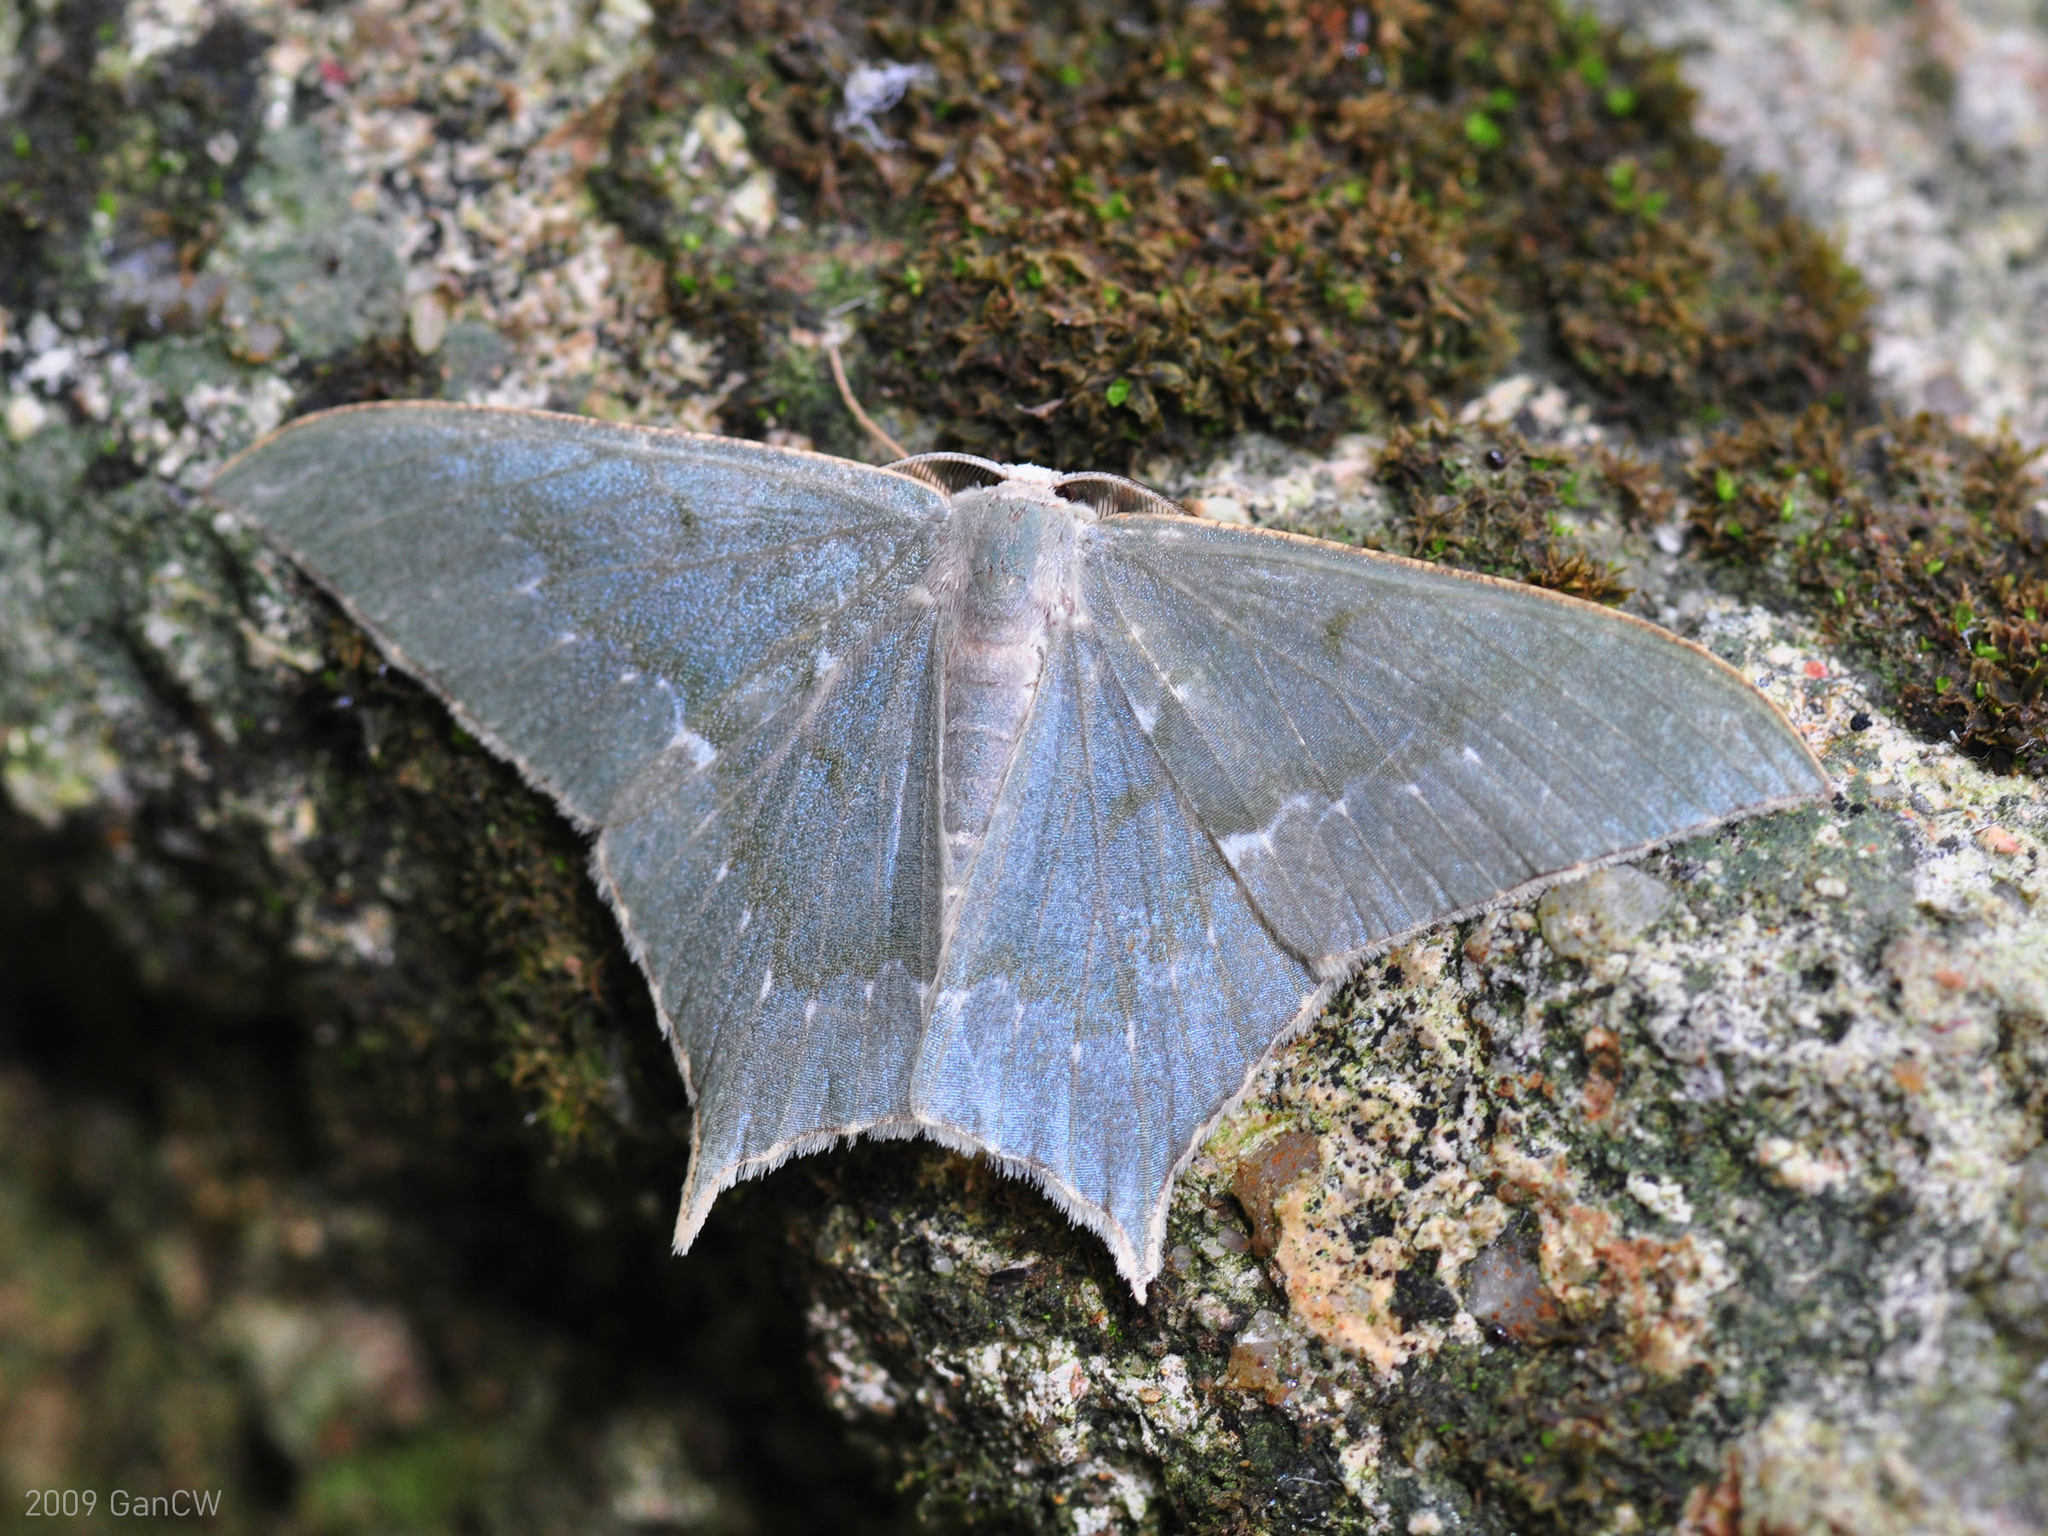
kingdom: Animalia
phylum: Arthropoda
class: Insecta
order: Lepidoptera
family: Geometridae
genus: Maxates
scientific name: Maxates korintjiensis
